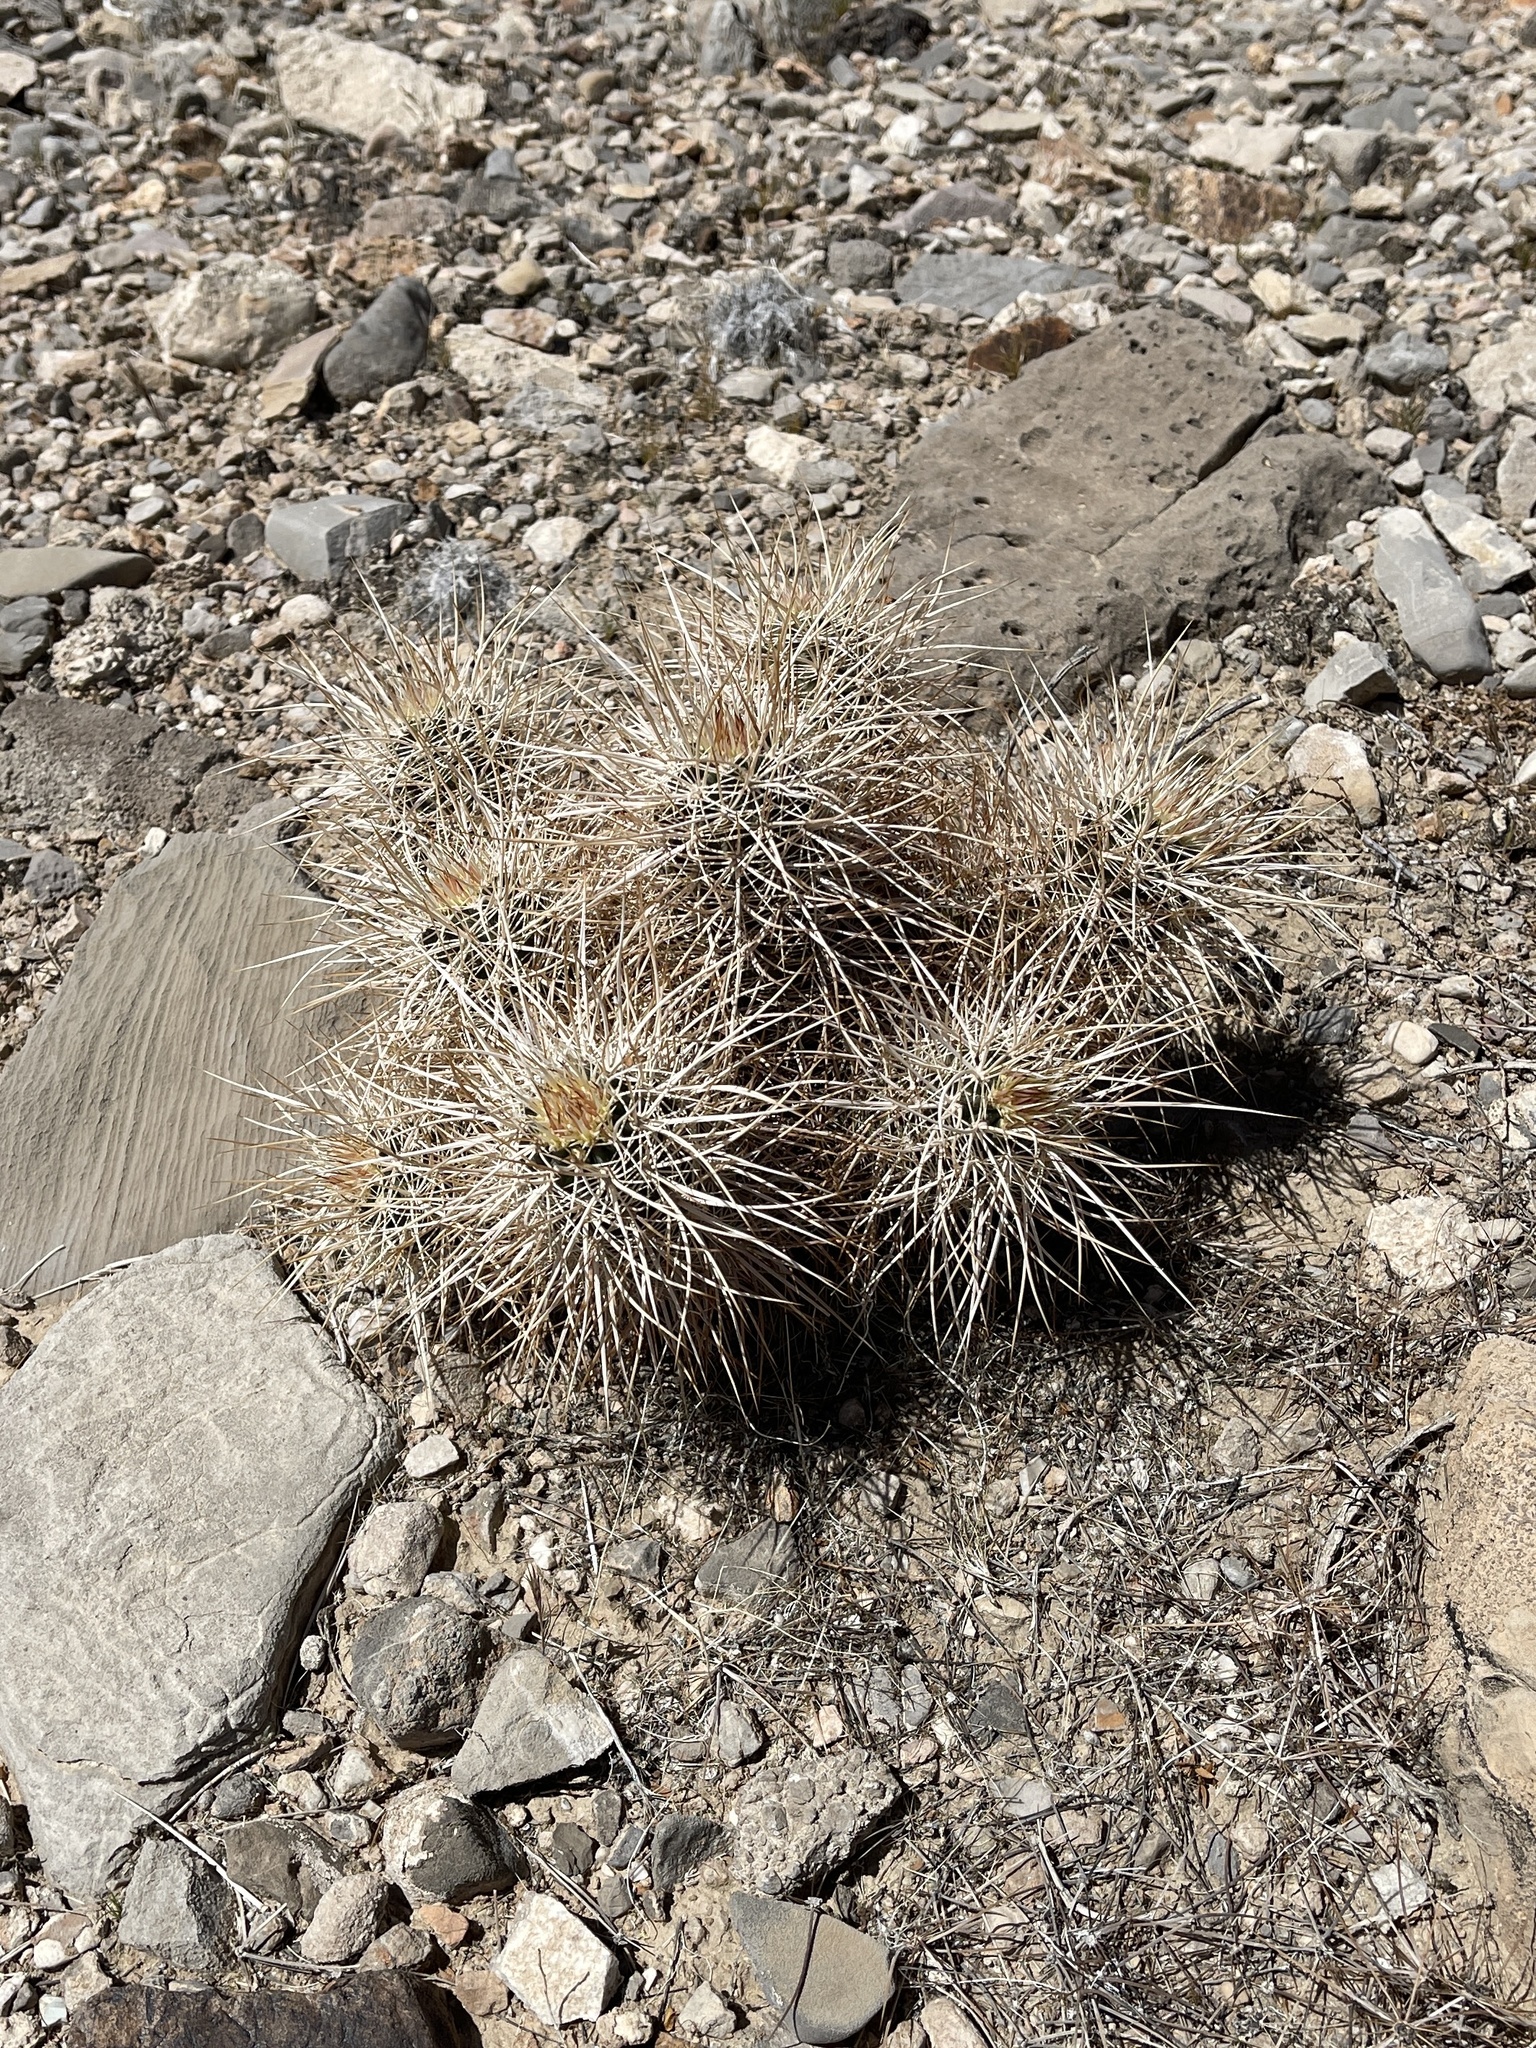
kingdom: Plantae
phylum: Tracheophyta
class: Magnoliopsida
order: Caryophyllales
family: Cactaceae
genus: Echinocereus
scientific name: Echinocereus engelmannii
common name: Engelmann's hedgehog cactus
